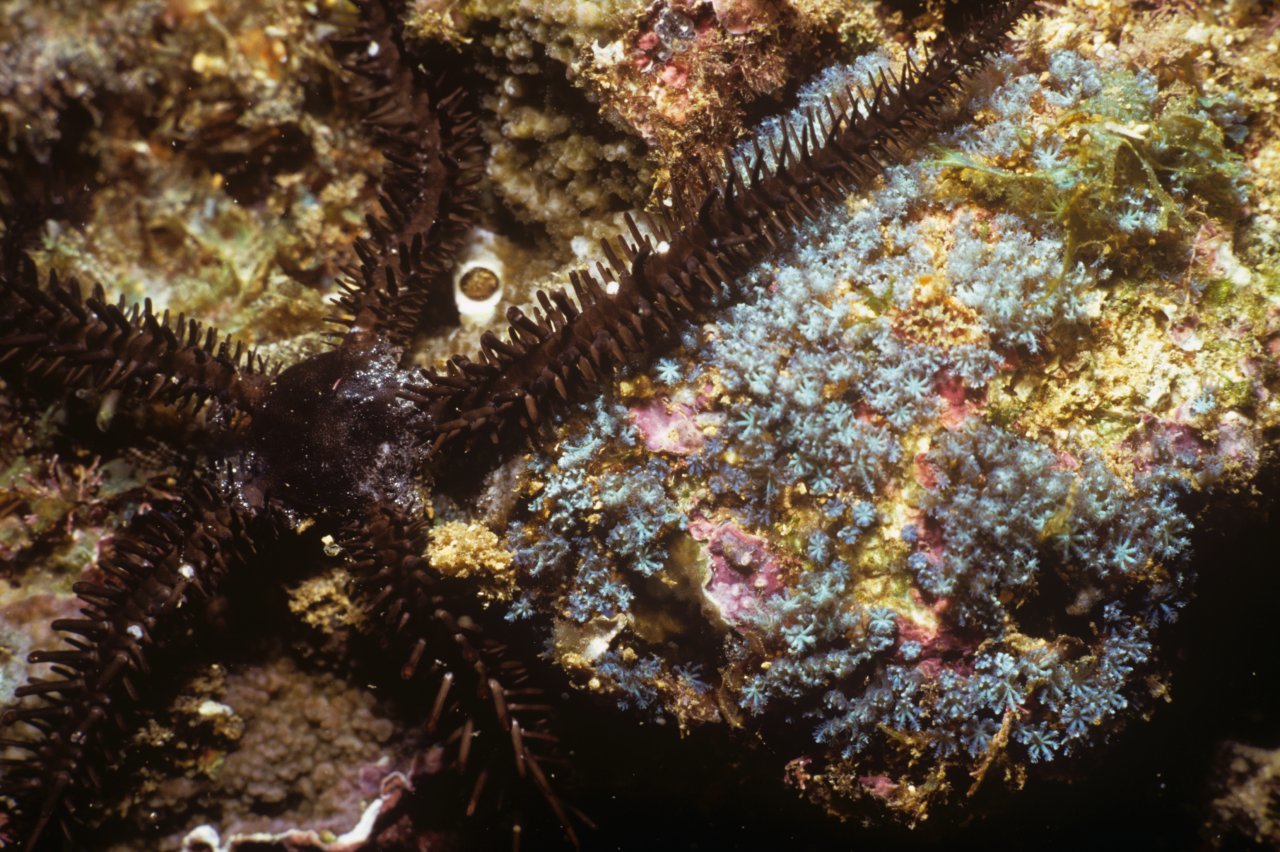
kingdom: Animalia
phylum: Echinodermata
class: Ophiuroidea
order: Ophiacanthida
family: Ophiocomidae
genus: Ophiocoma
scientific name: Ophiocoma erinaceus
